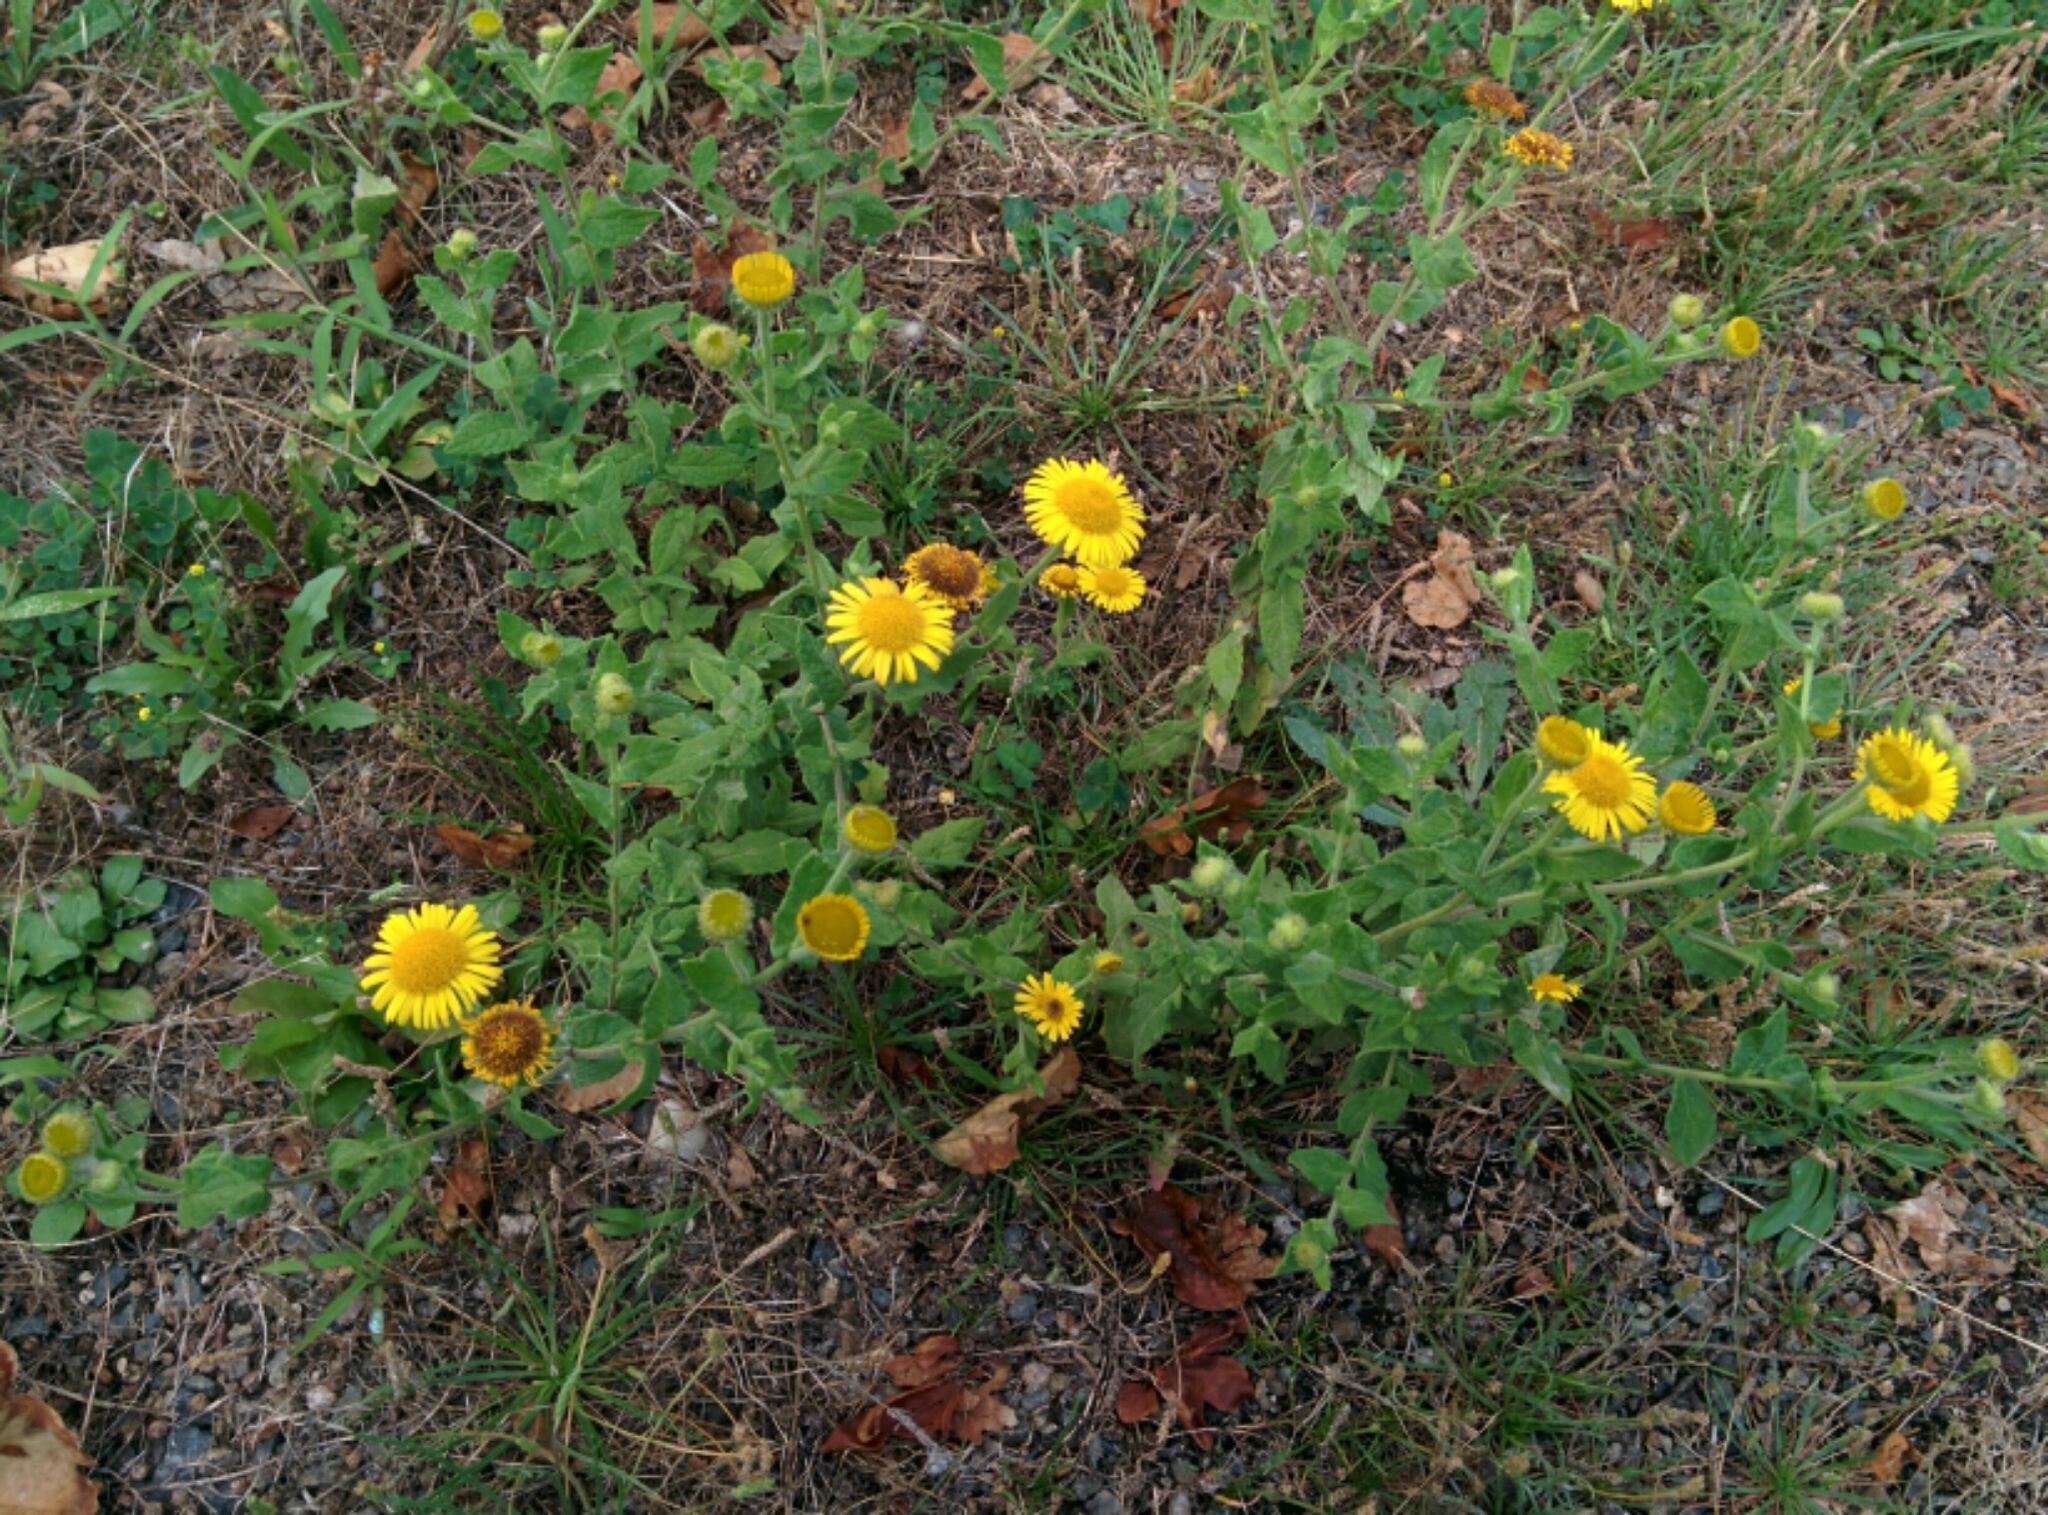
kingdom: Plantae
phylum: Tracheophyta
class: Magnoliopsida
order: Asterales
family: Asteraceae
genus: Pulicaria
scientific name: Pulicaria dysenterica
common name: Common fleabane
